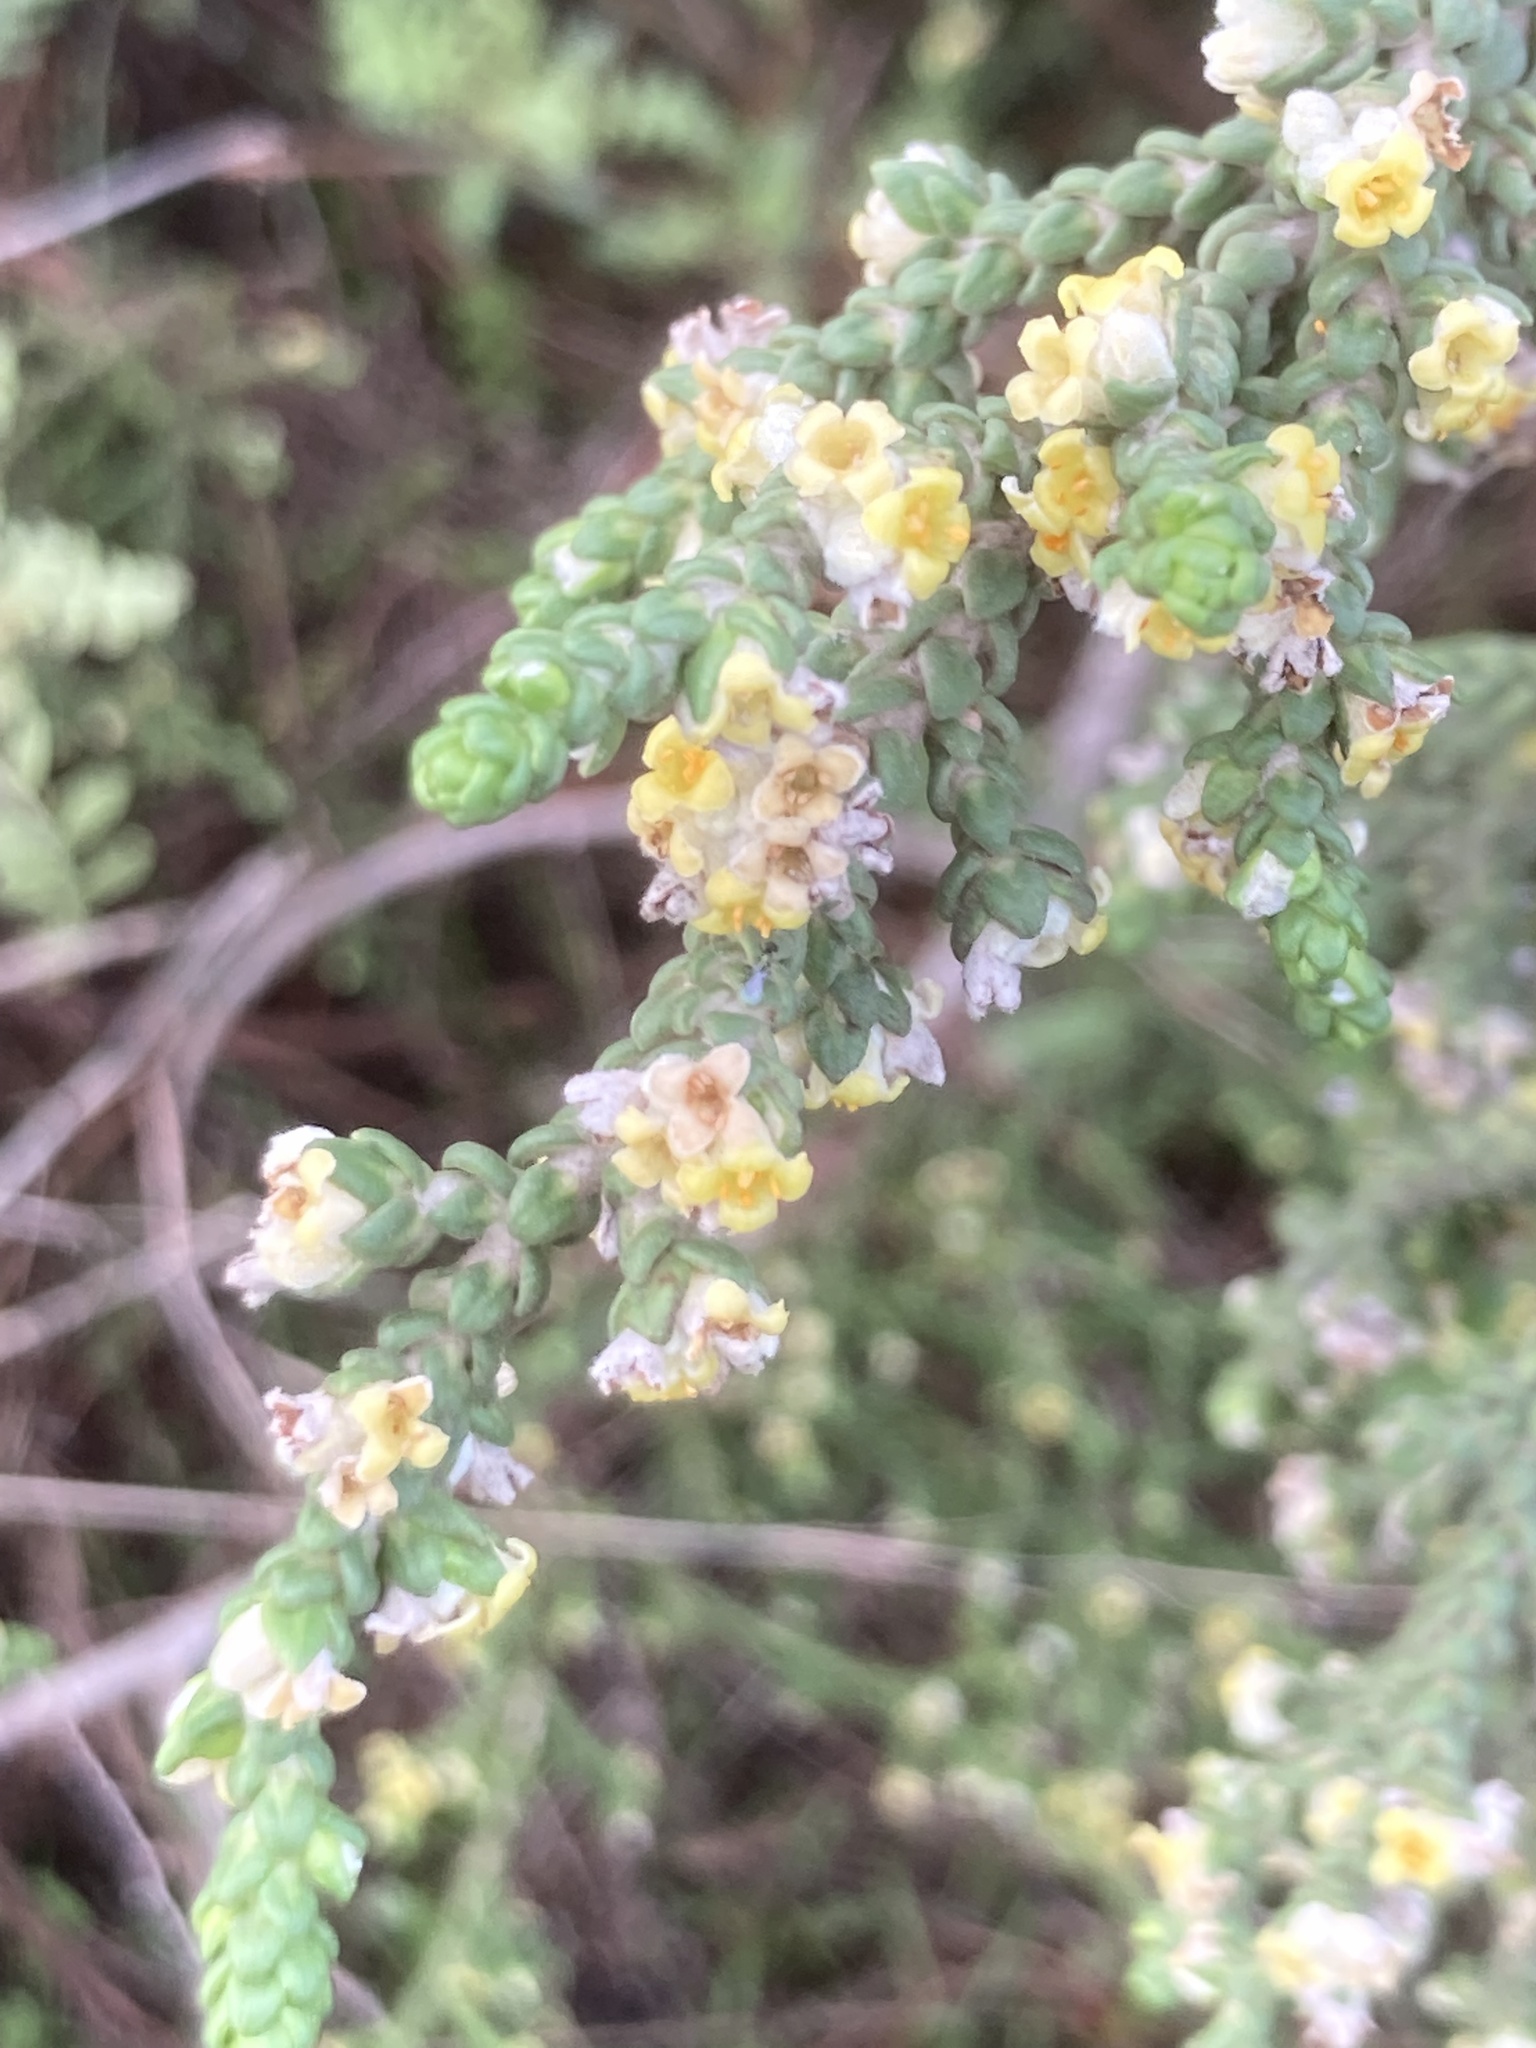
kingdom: Plantae
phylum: Tracheophyta
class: Magnoliopsida
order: Malvales
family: Thymelaeaceae
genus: Thymelaea
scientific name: Thymelaea hirsuta
